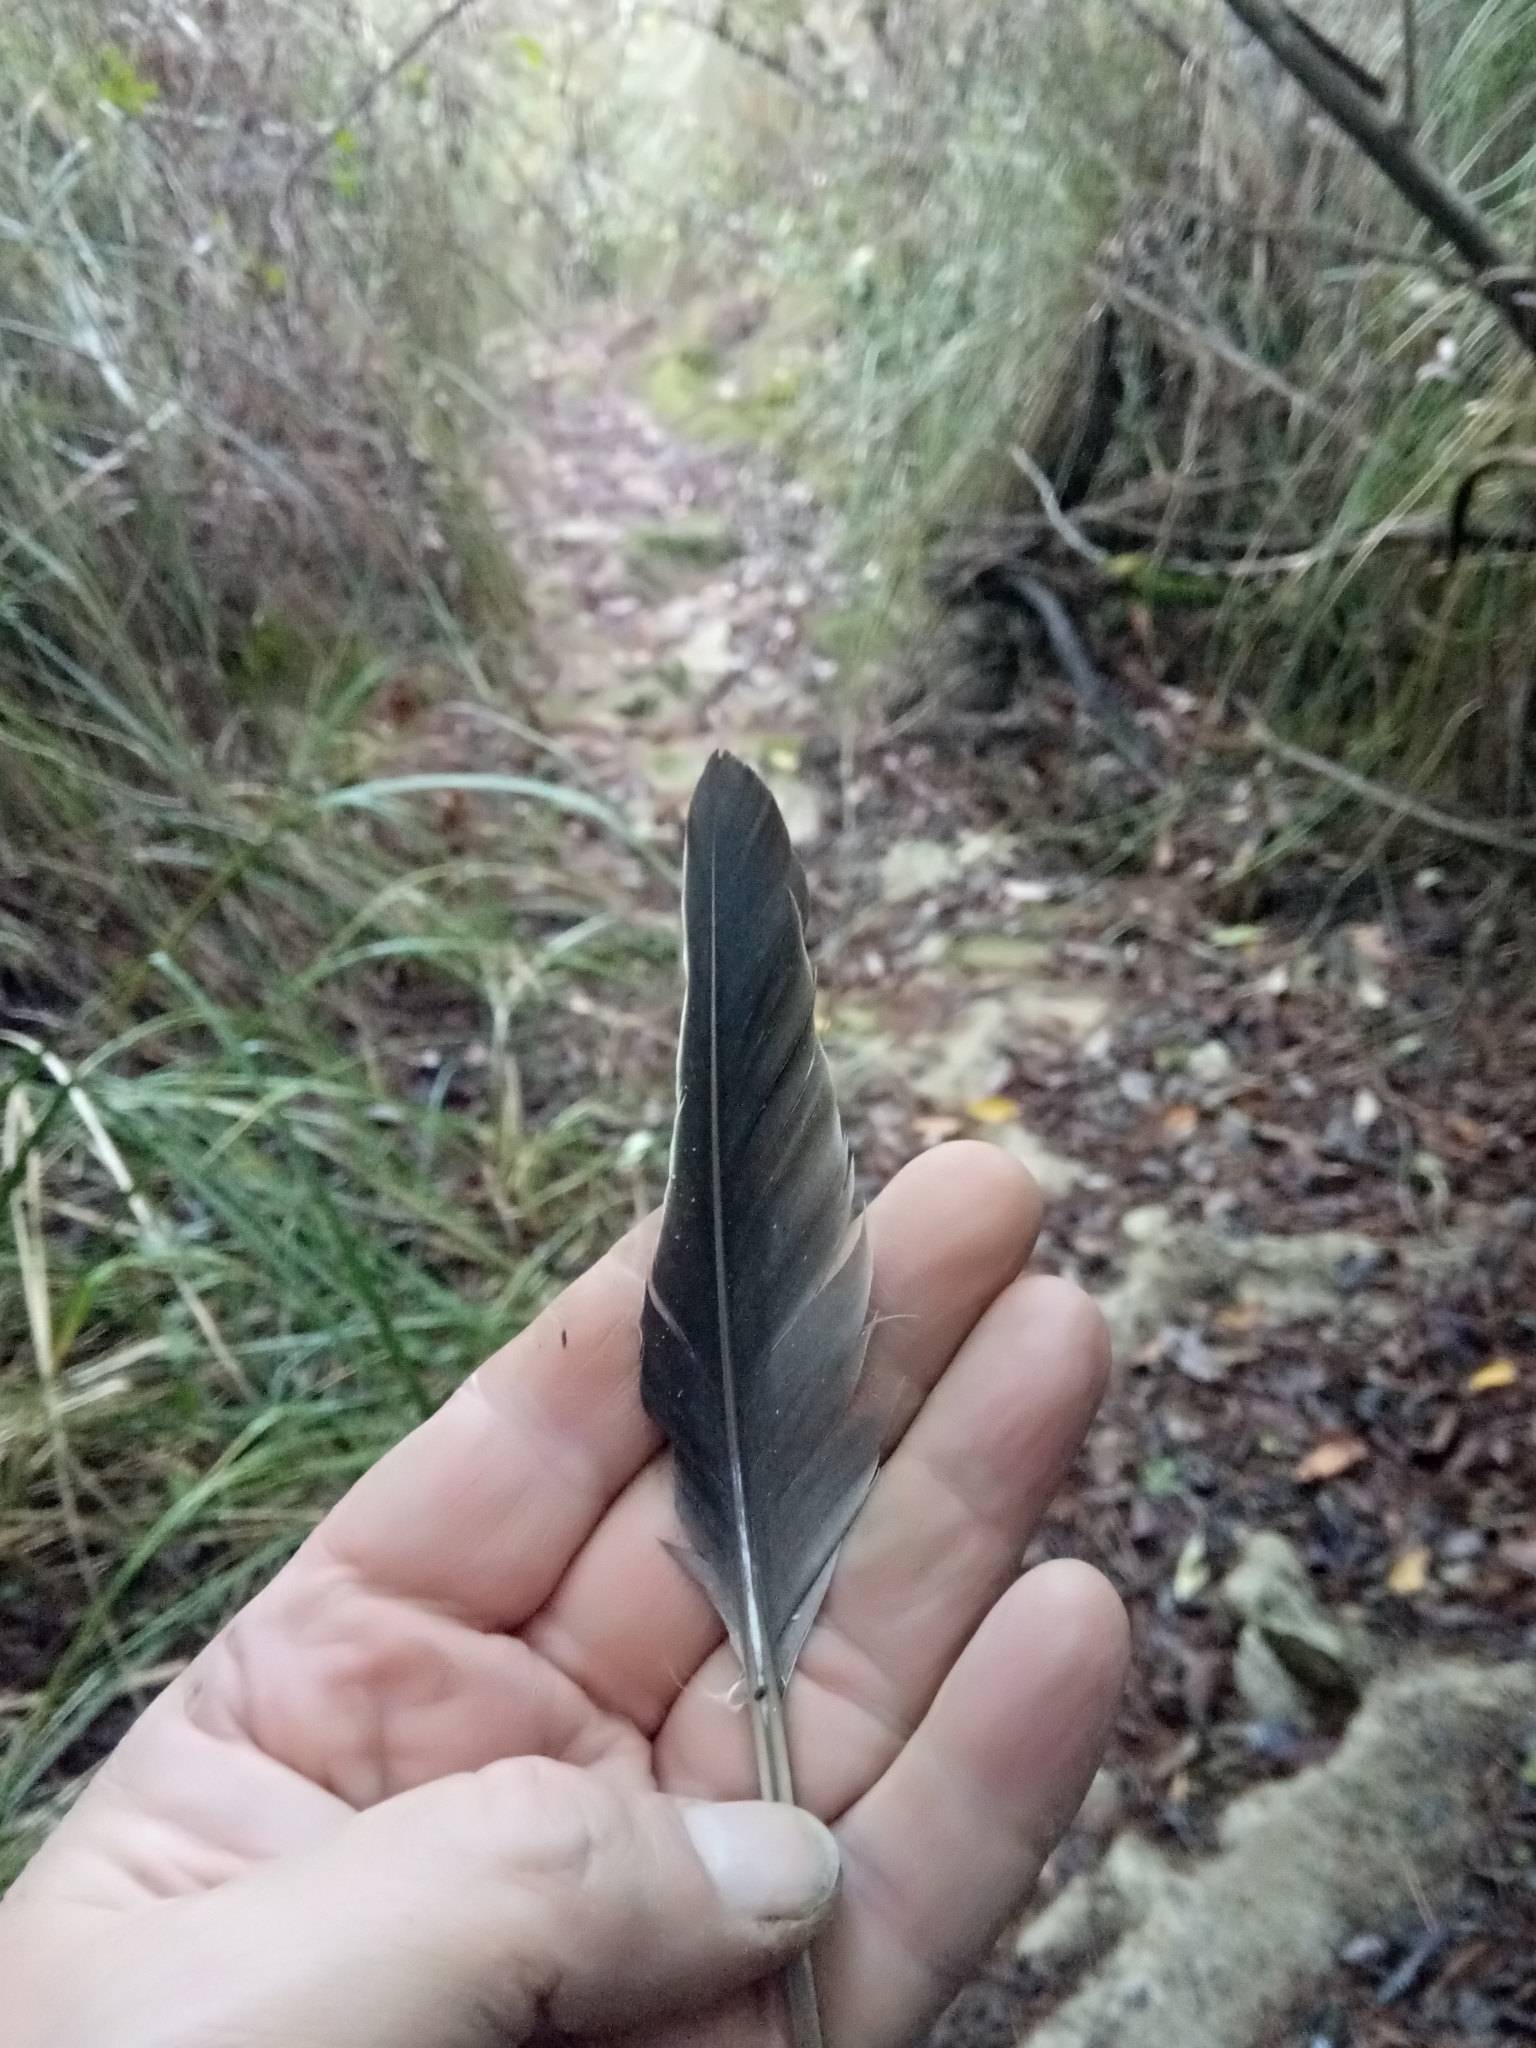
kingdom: Animalia
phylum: Chordata
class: Aves
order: Columbiformes
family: Columbidae
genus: Columba
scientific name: Columba palumbus
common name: Common wood pigeon
